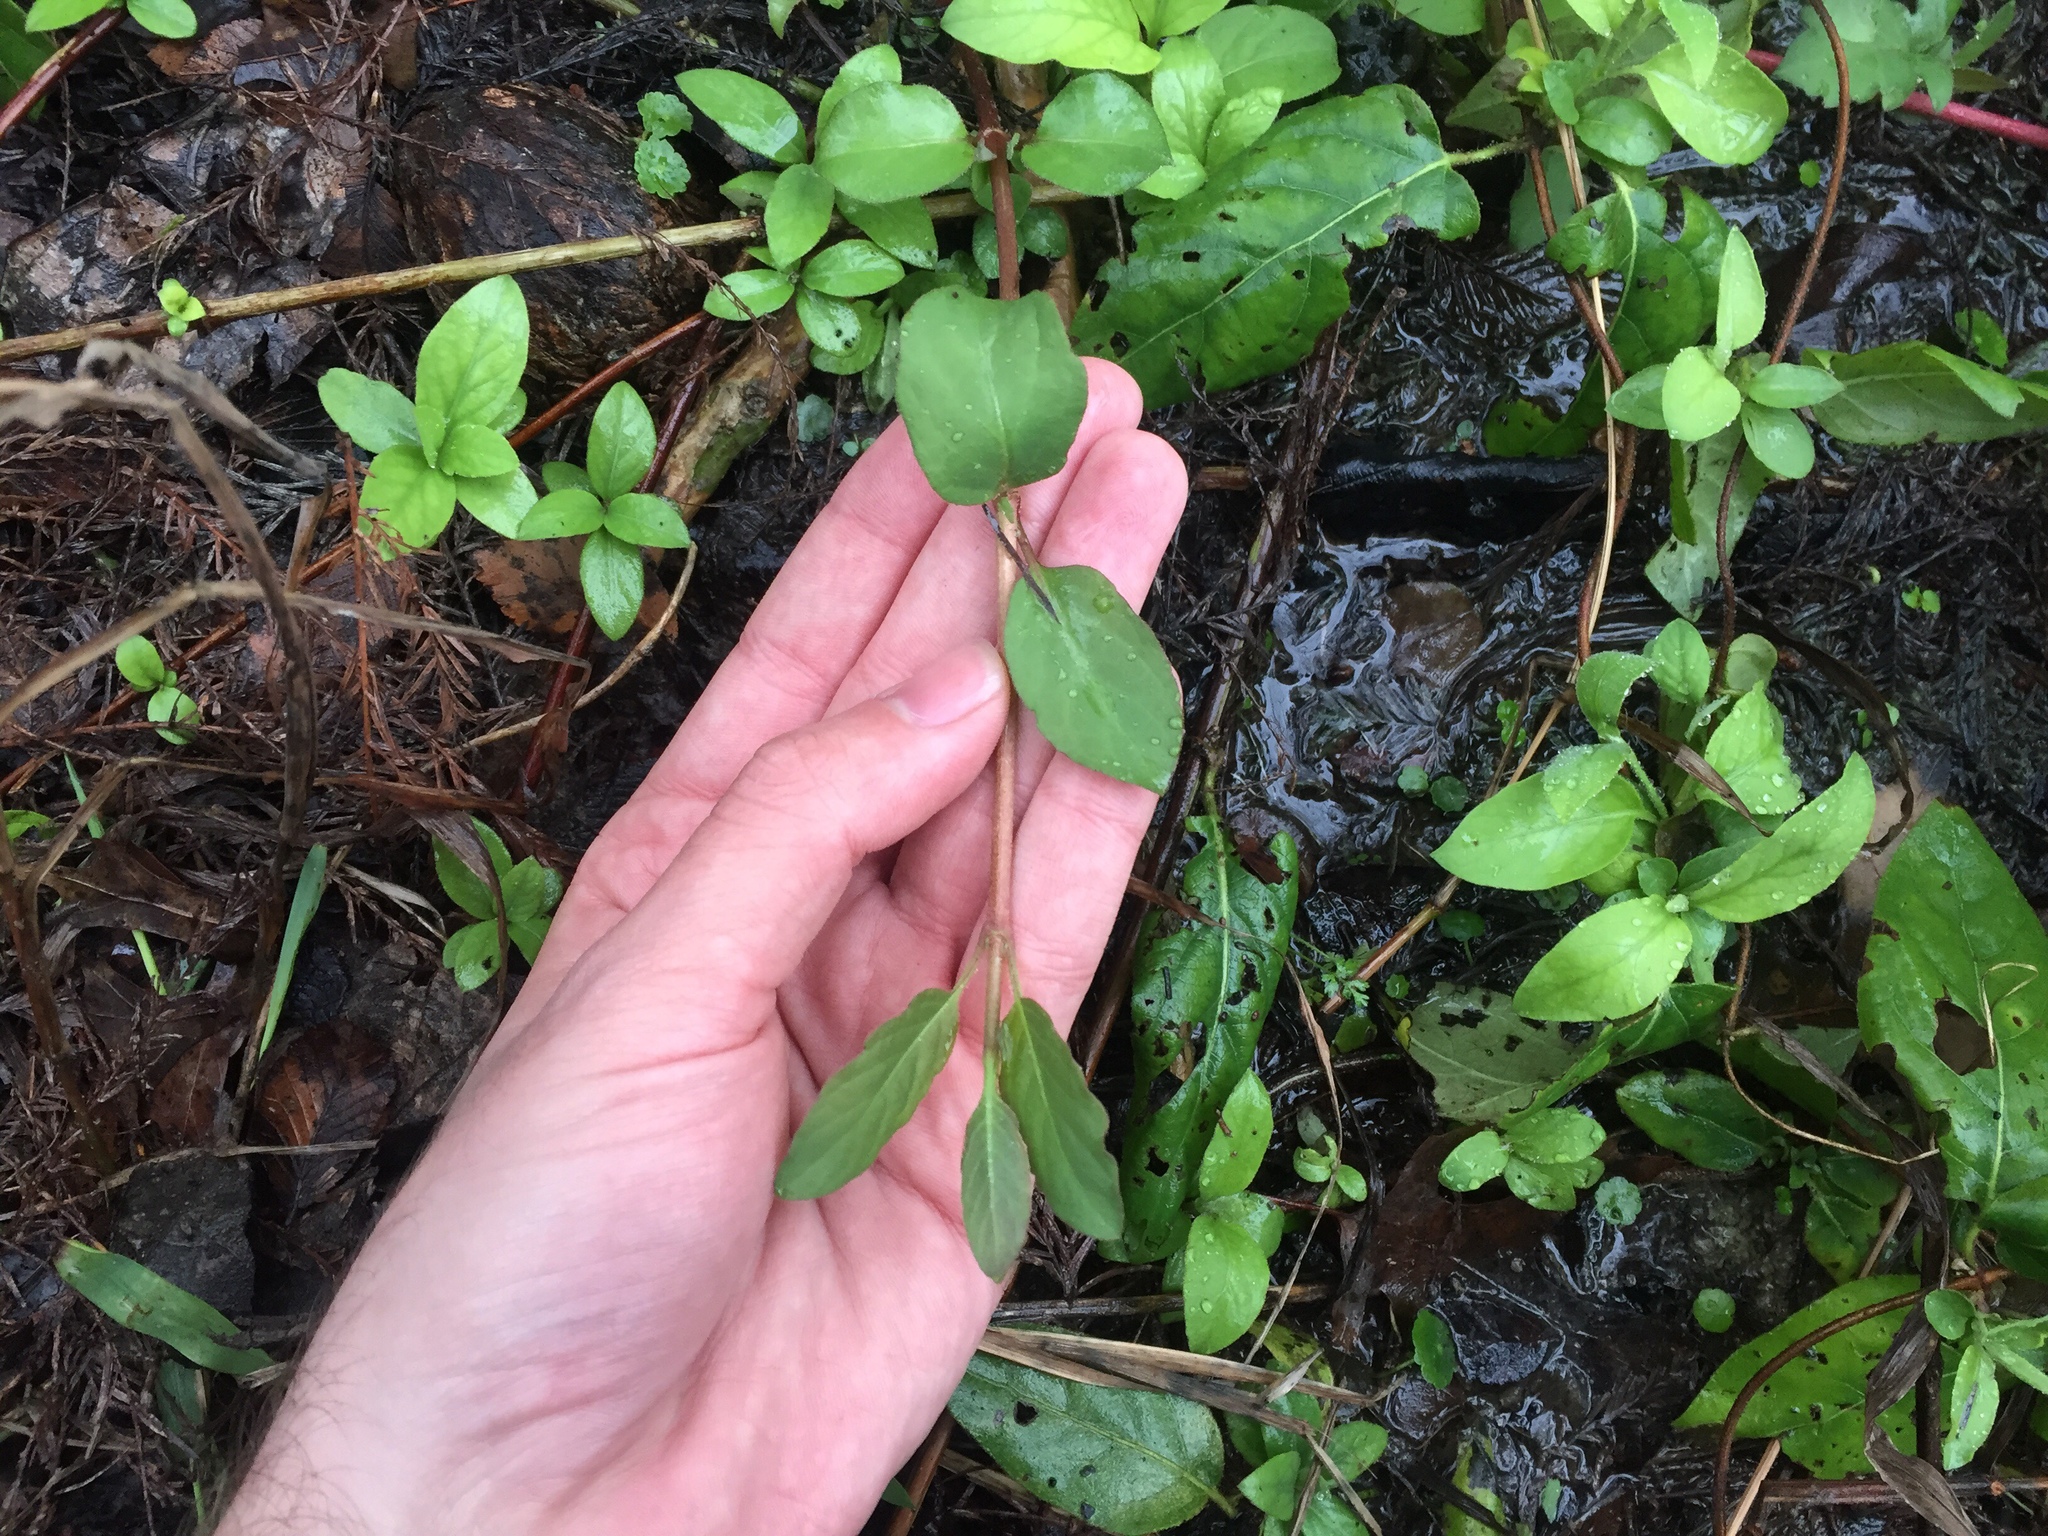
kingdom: Plantae
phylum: Tracheophyta
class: Magnoliopsida
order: Dipsacales
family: Caprifoliaceae
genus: Lonicera
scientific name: Lonicera japonica
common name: Japanese honeysuckle
